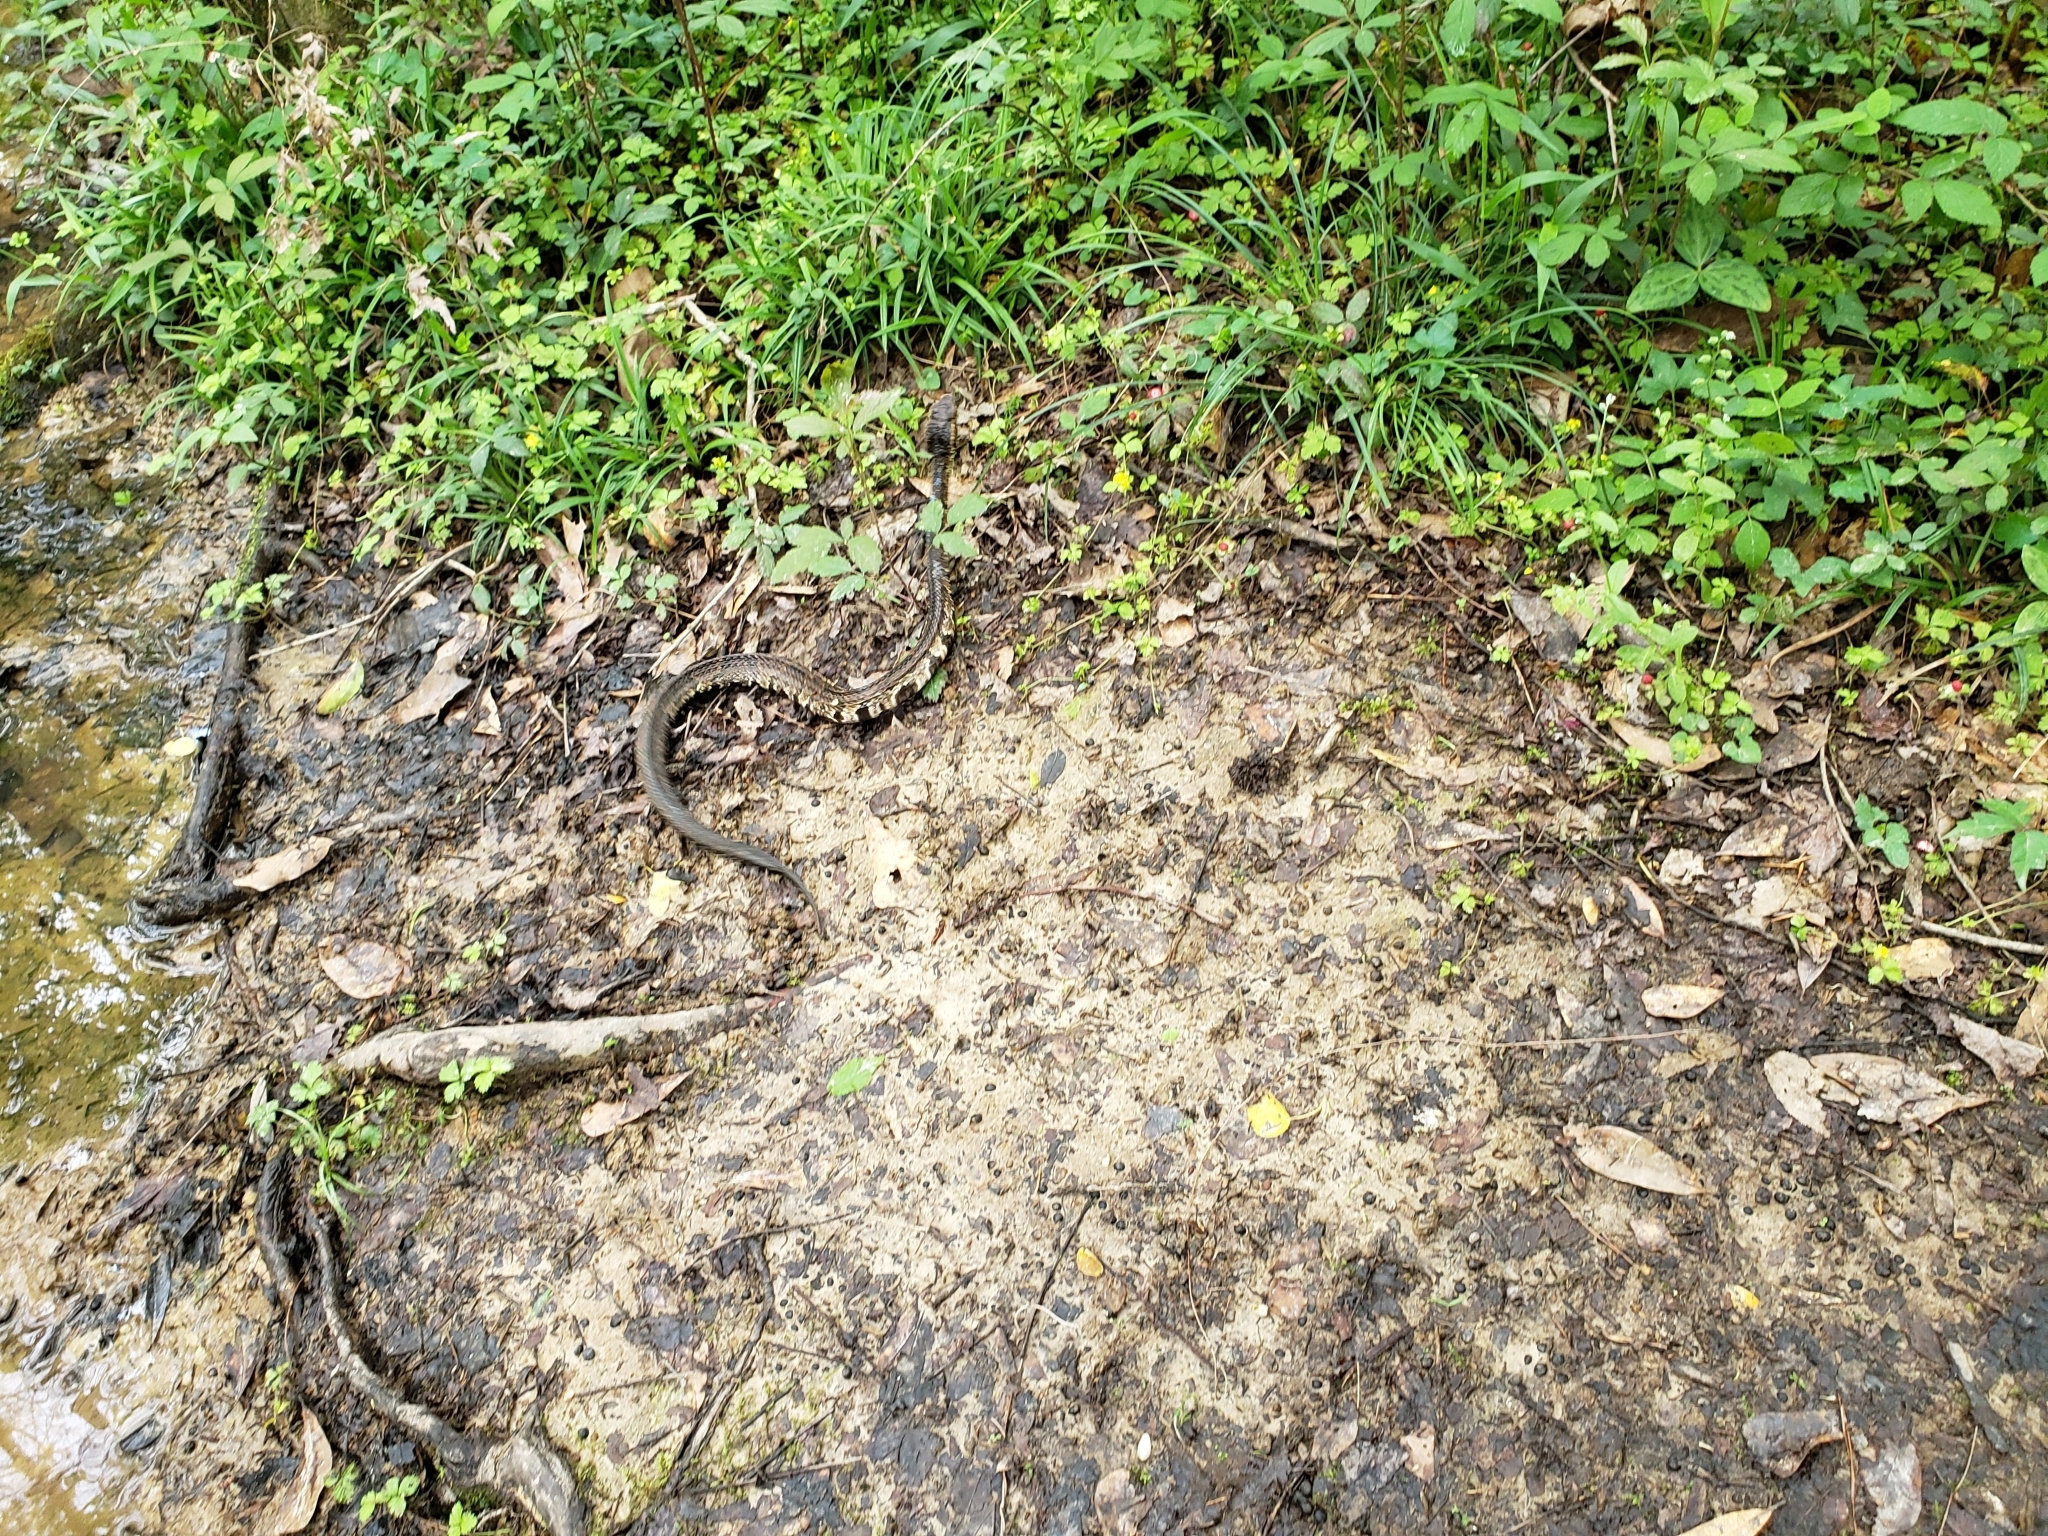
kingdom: Animalia
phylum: Chordata
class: Squamata
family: Viperidae
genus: Agkistrodon
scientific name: Agkistrodon piscivorus
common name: Cottonmouth
